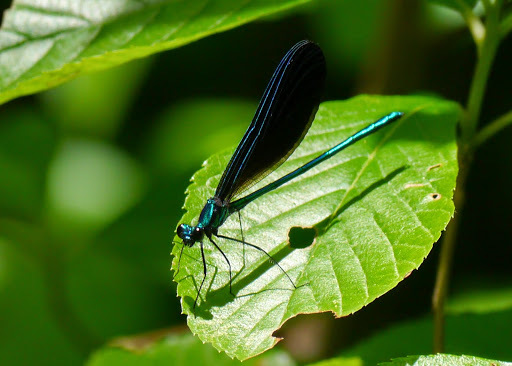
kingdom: Animalia
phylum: Arthropoda
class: Insecta
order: Odonata
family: Calopterygidae
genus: Calopteryx
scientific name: Calopteryx maculata
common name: Ebony jewelwing
